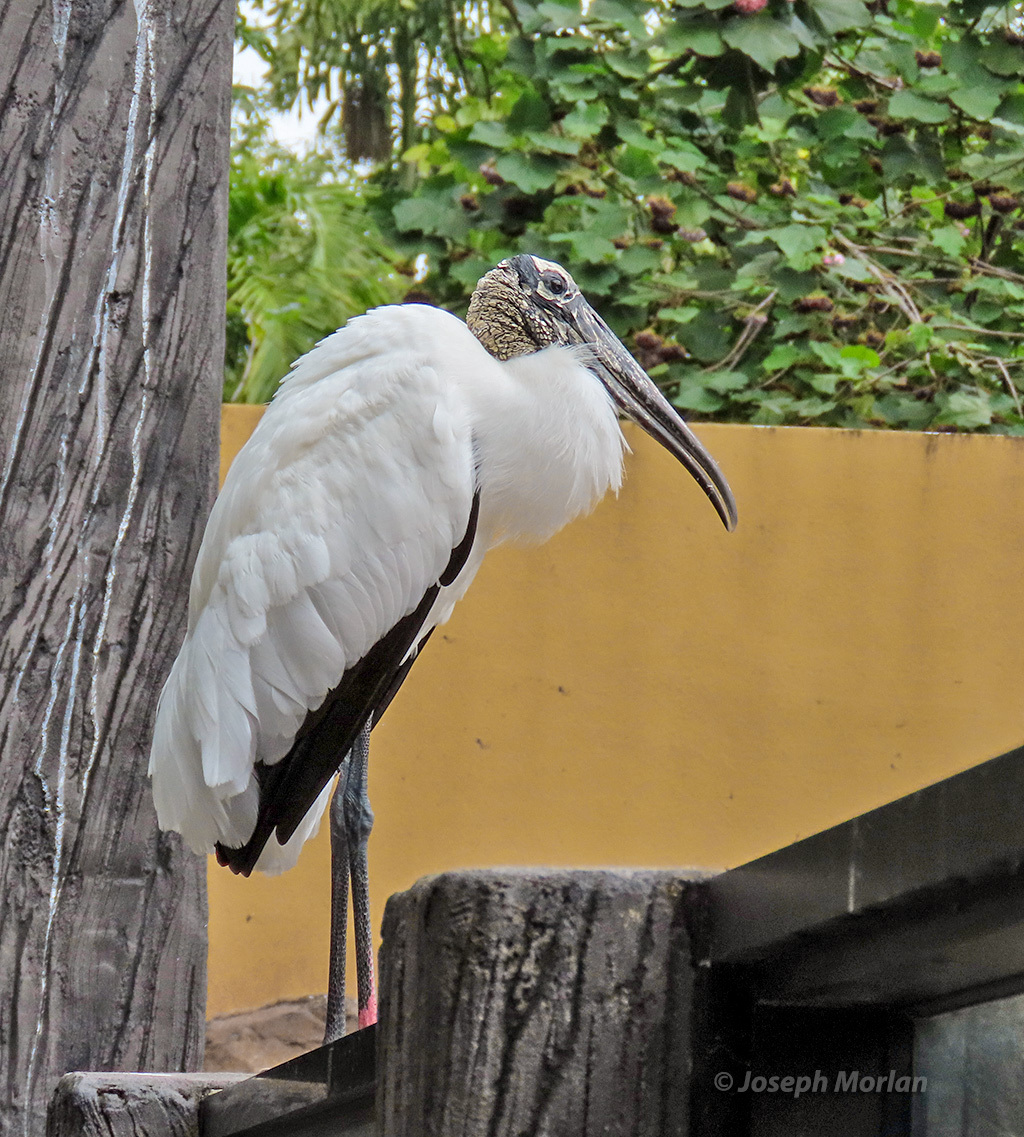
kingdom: Animalia
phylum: Chordata
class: Aves
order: Ciconiiformes
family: Ciconiidae
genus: Mycteria
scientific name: Mycteria americana
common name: Wood stork
